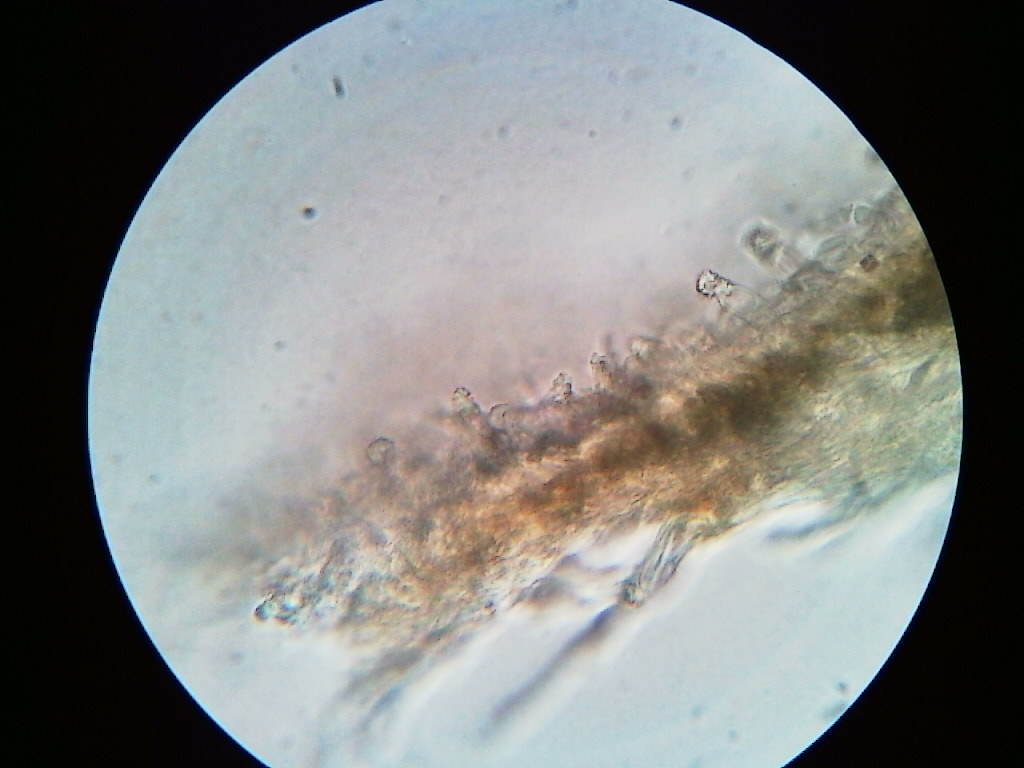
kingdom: Fungi
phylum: Basidiomycota
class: Agaricomycetes
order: Hymenochaetales
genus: Trichaptum
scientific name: Trichaptum subchartaceum
